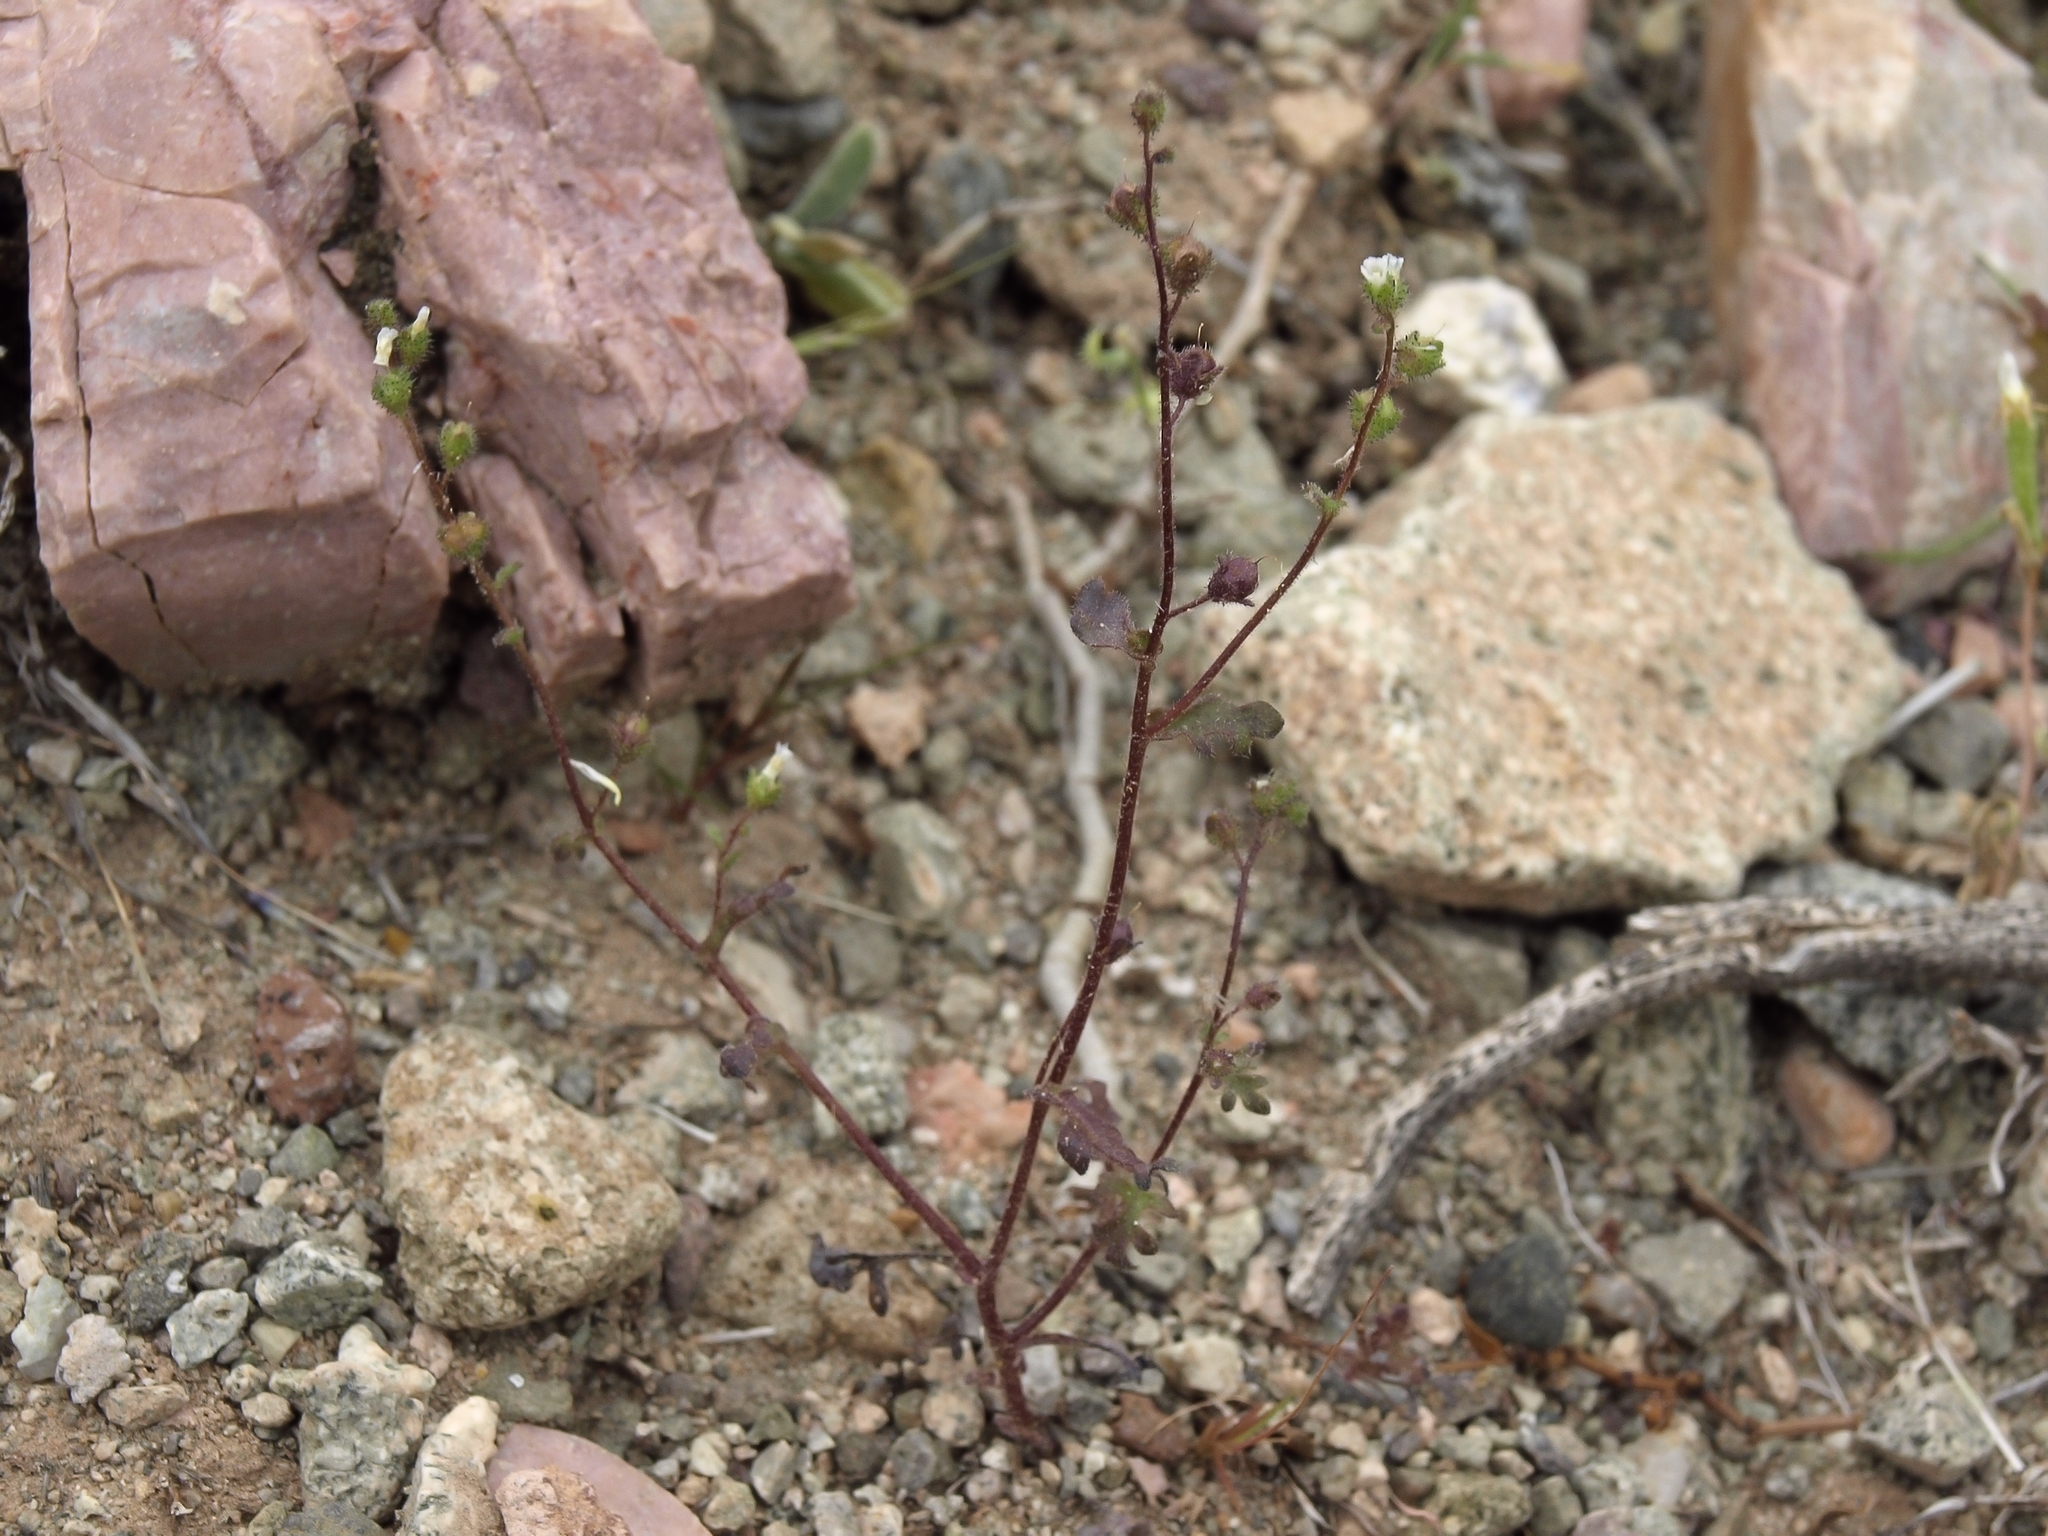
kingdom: Plantae
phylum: Tracheophyta
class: Magnoliopsida
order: Boraginales
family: Hydrophyllaceae
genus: Eucrypta
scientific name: Eucrypta micrantha
